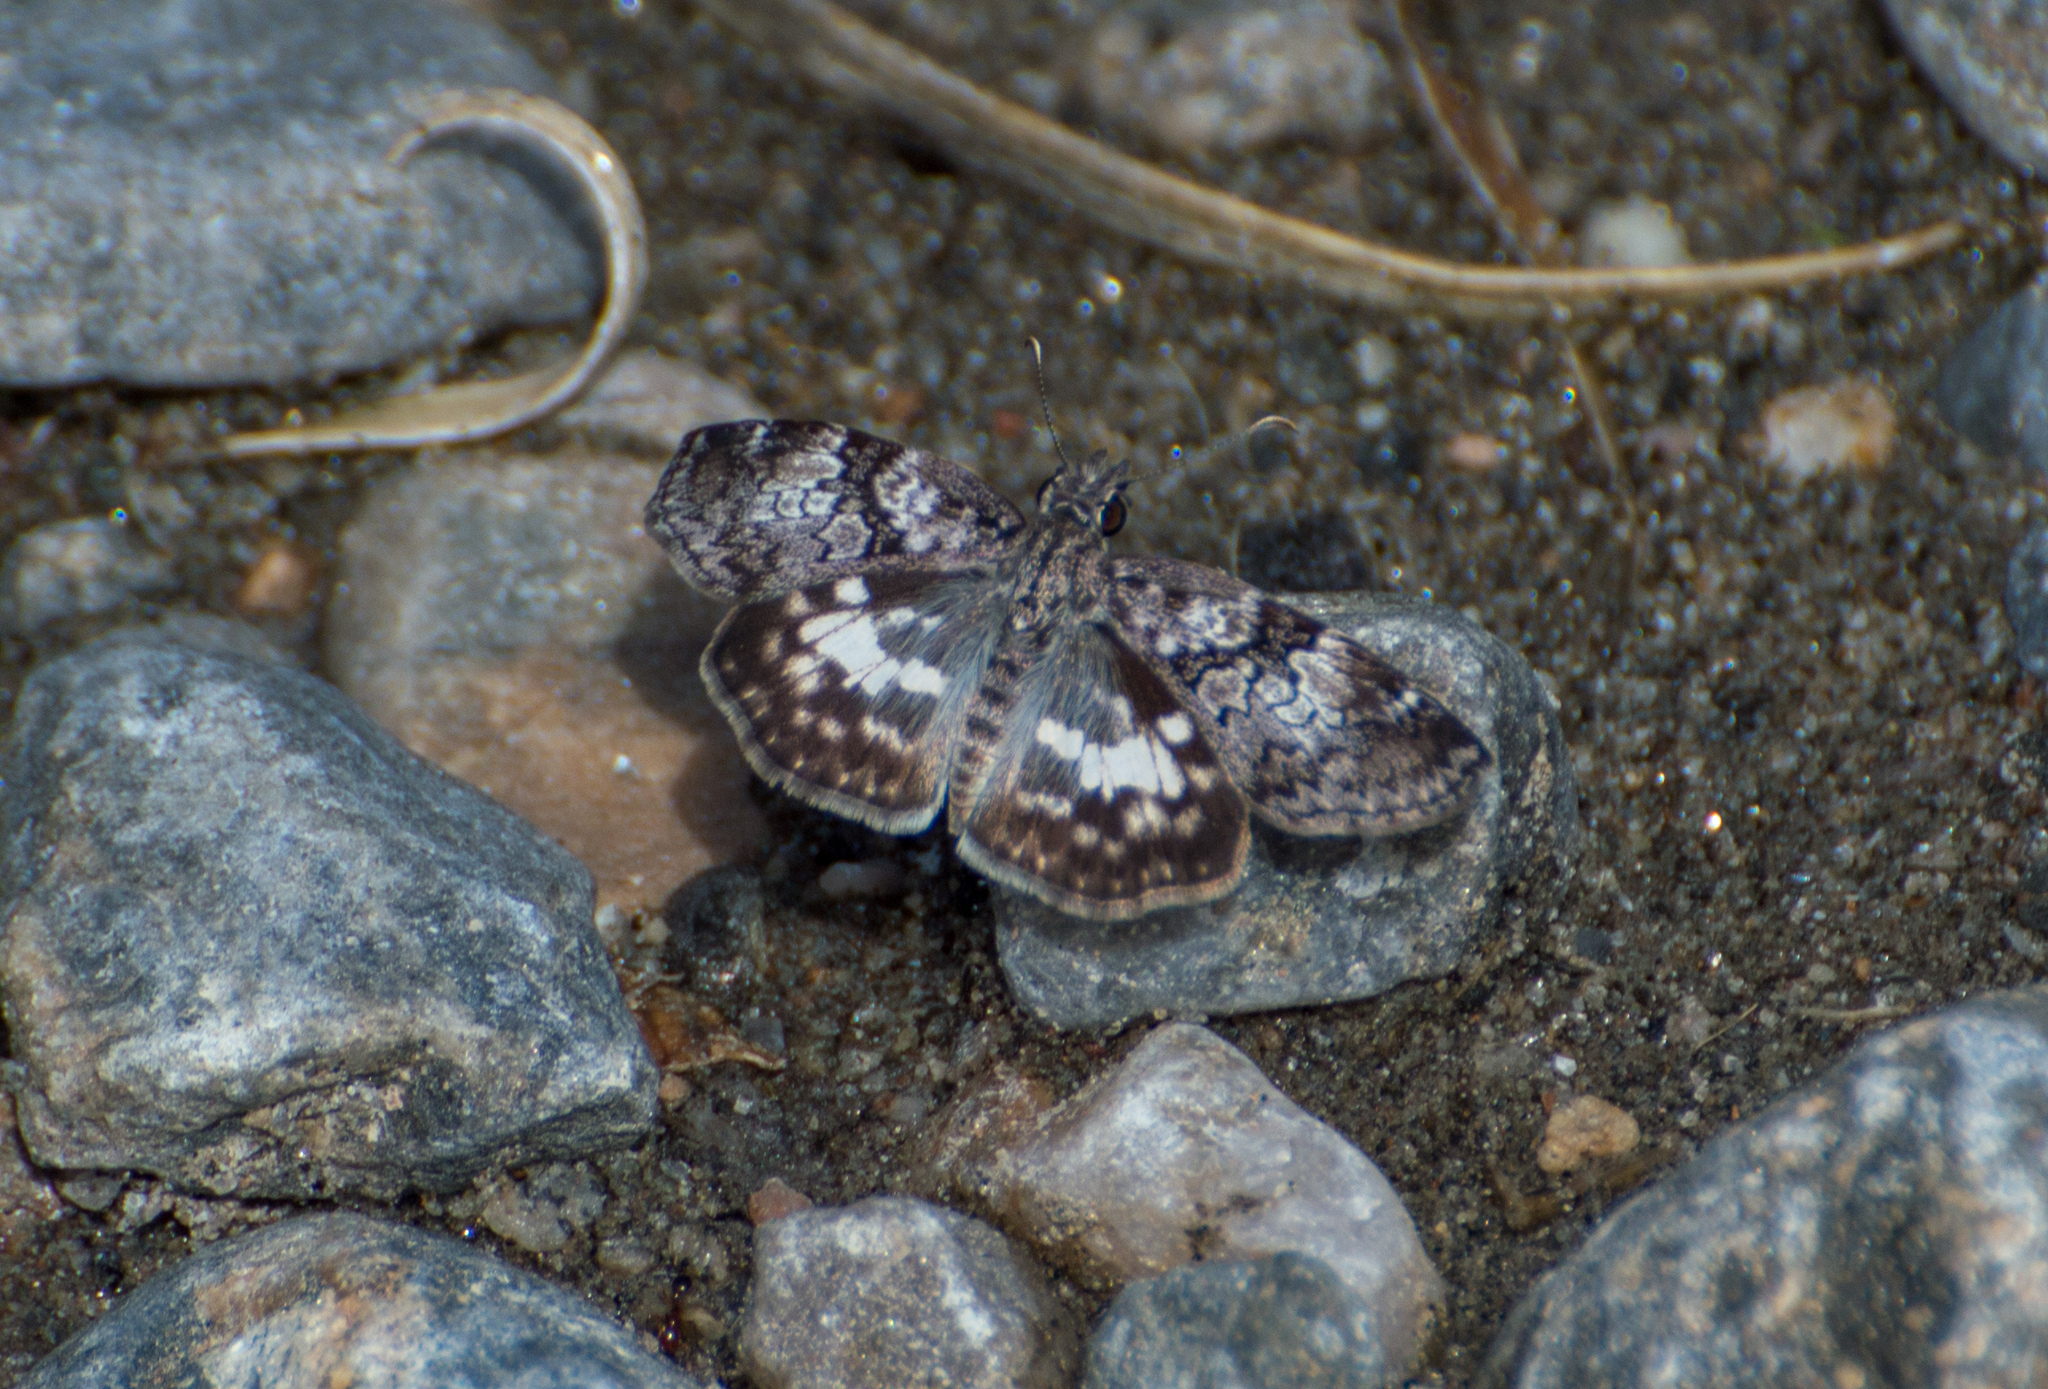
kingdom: Animalia
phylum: Arthropoda
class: Insecta
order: Lepidoptera
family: Hesperiidae
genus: Chiomara
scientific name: Chiomara asychis
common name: White-patterned skipper
